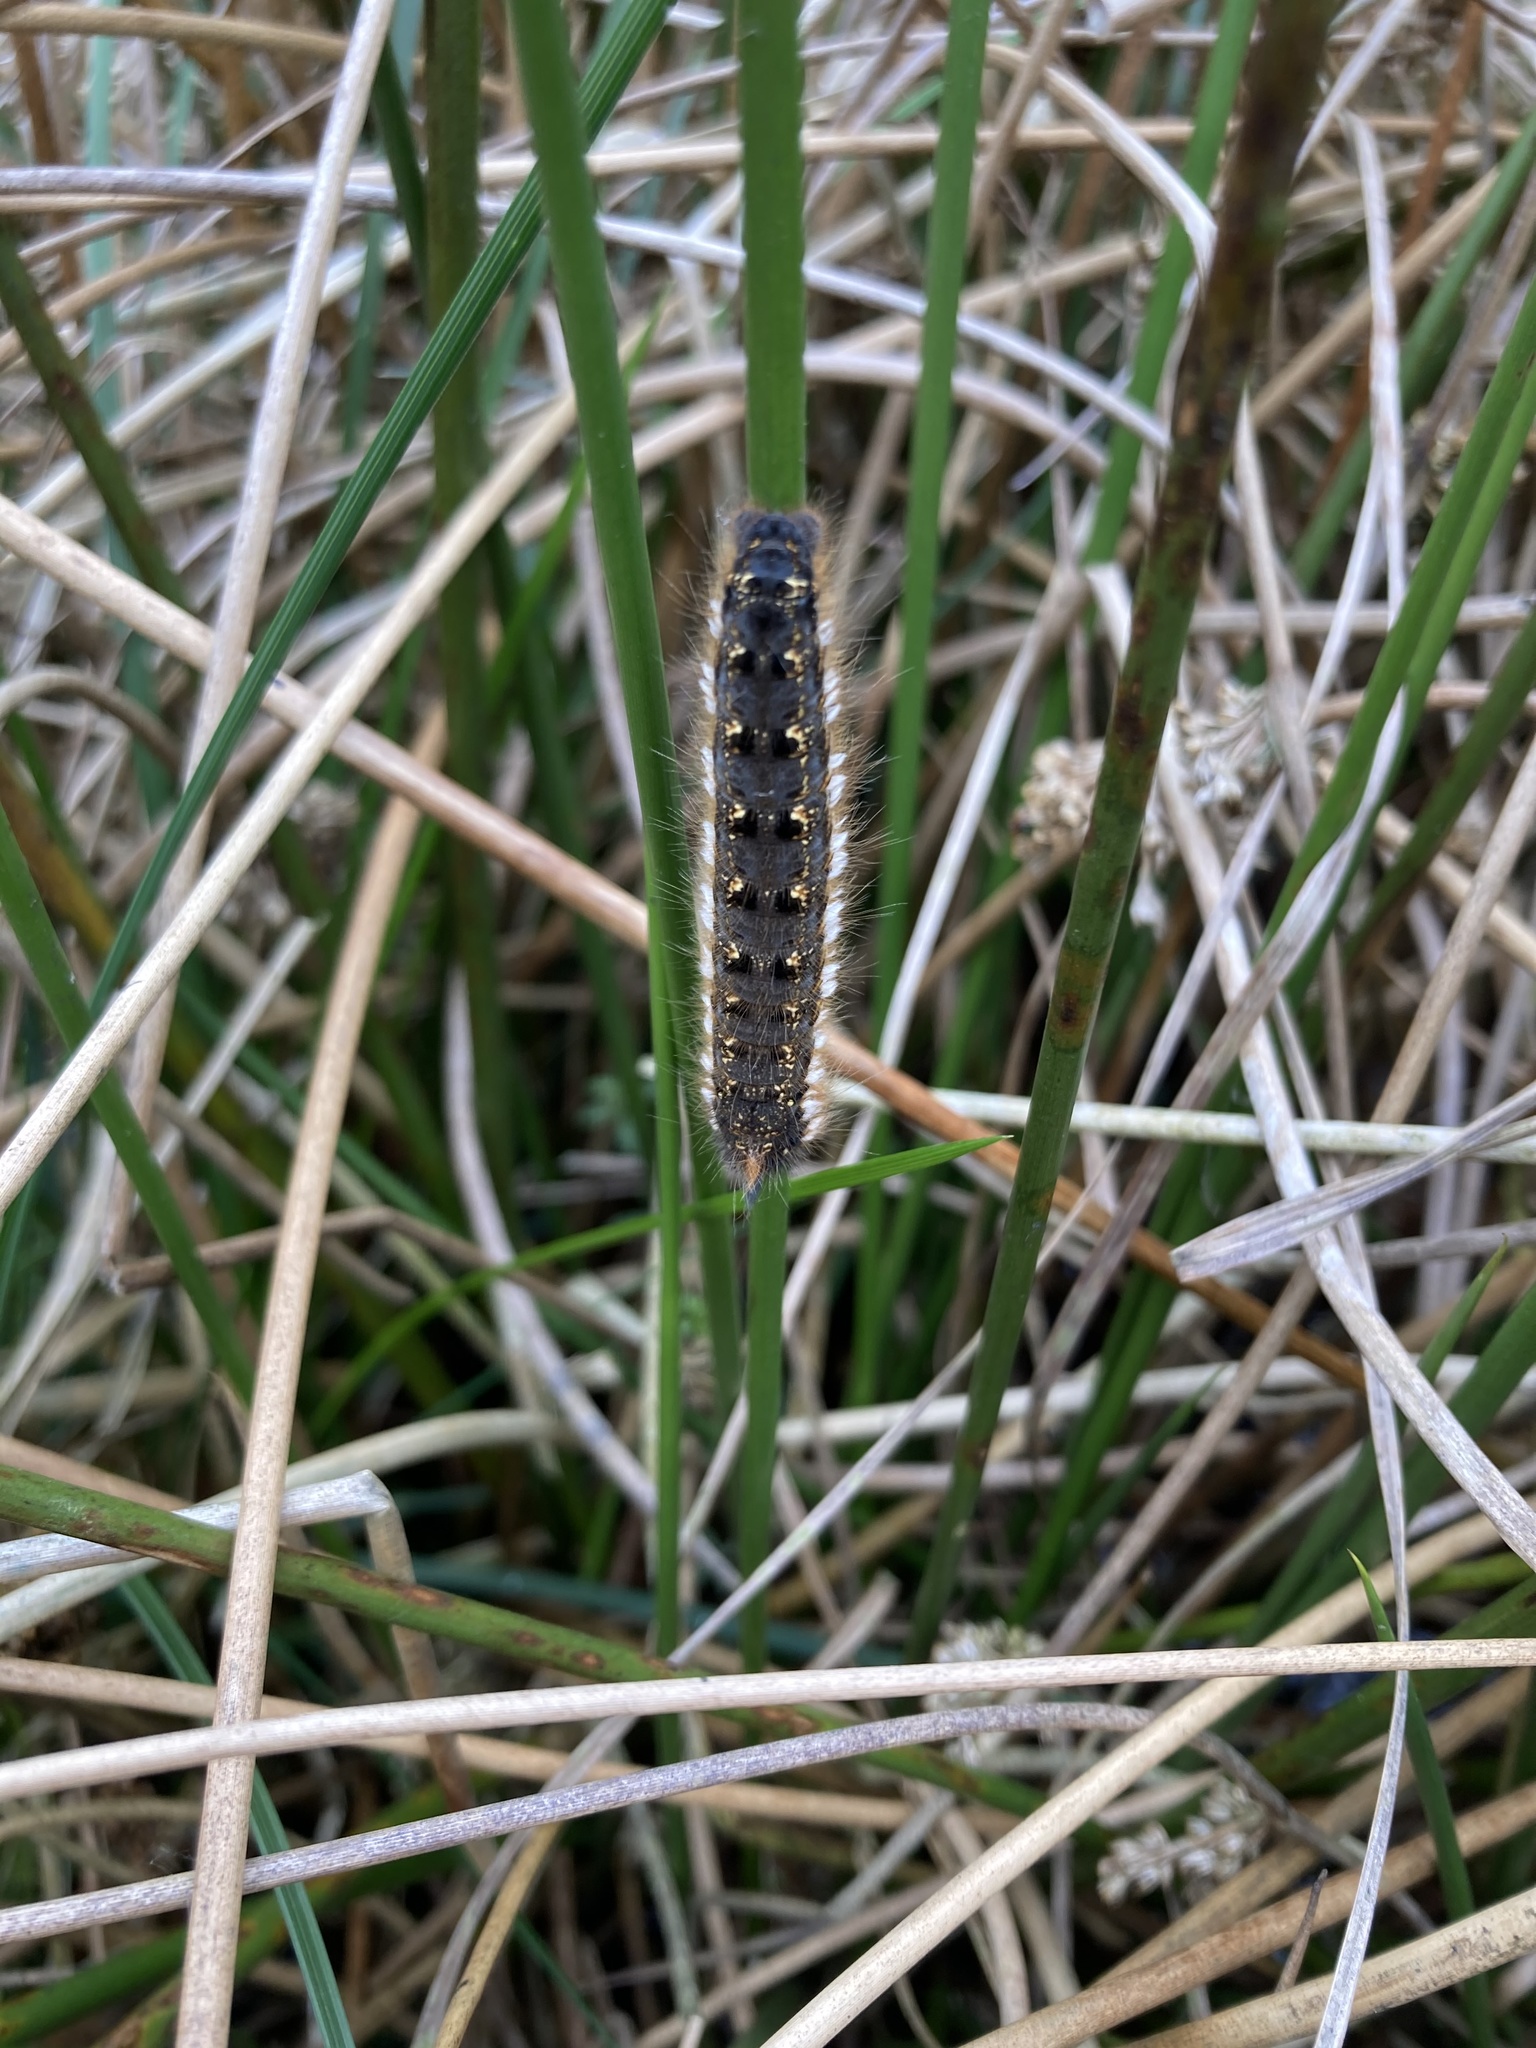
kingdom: Animalia
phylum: Arthropoda
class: Insecta
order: Lepidoptera
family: Lasiocampidae
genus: Euthrix
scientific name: Euthrix potatoria
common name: Drinker
